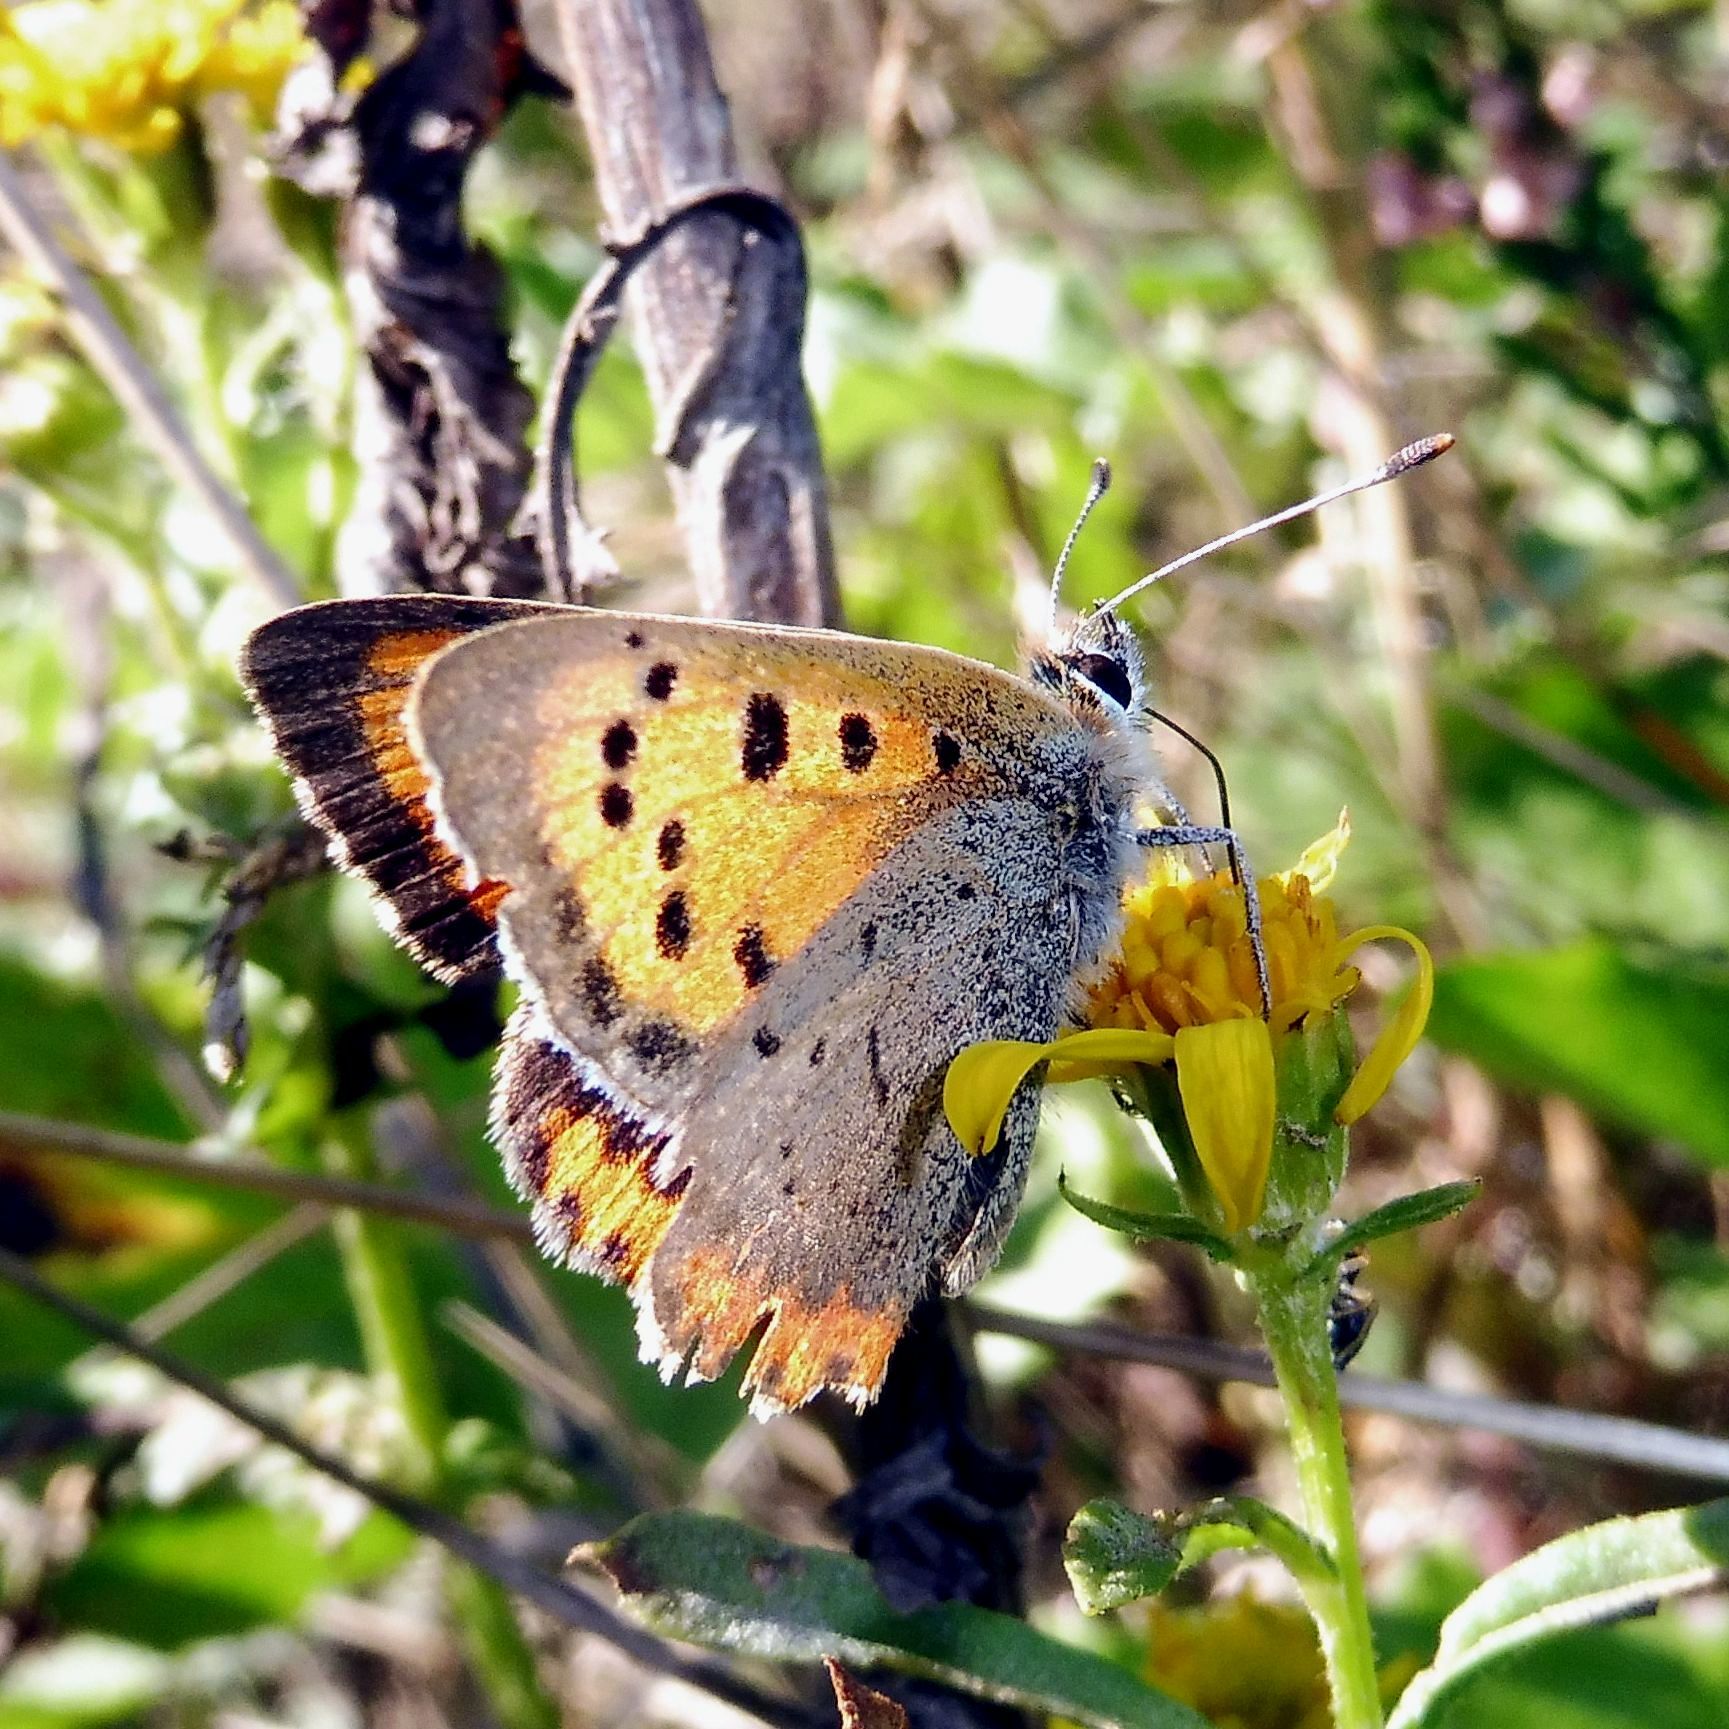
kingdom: Animalia
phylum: Arthropoda
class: Insecta
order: Lepidoptera
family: Lycaenidae
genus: Lycaena
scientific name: Lycaena phlaeas
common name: Small copper
